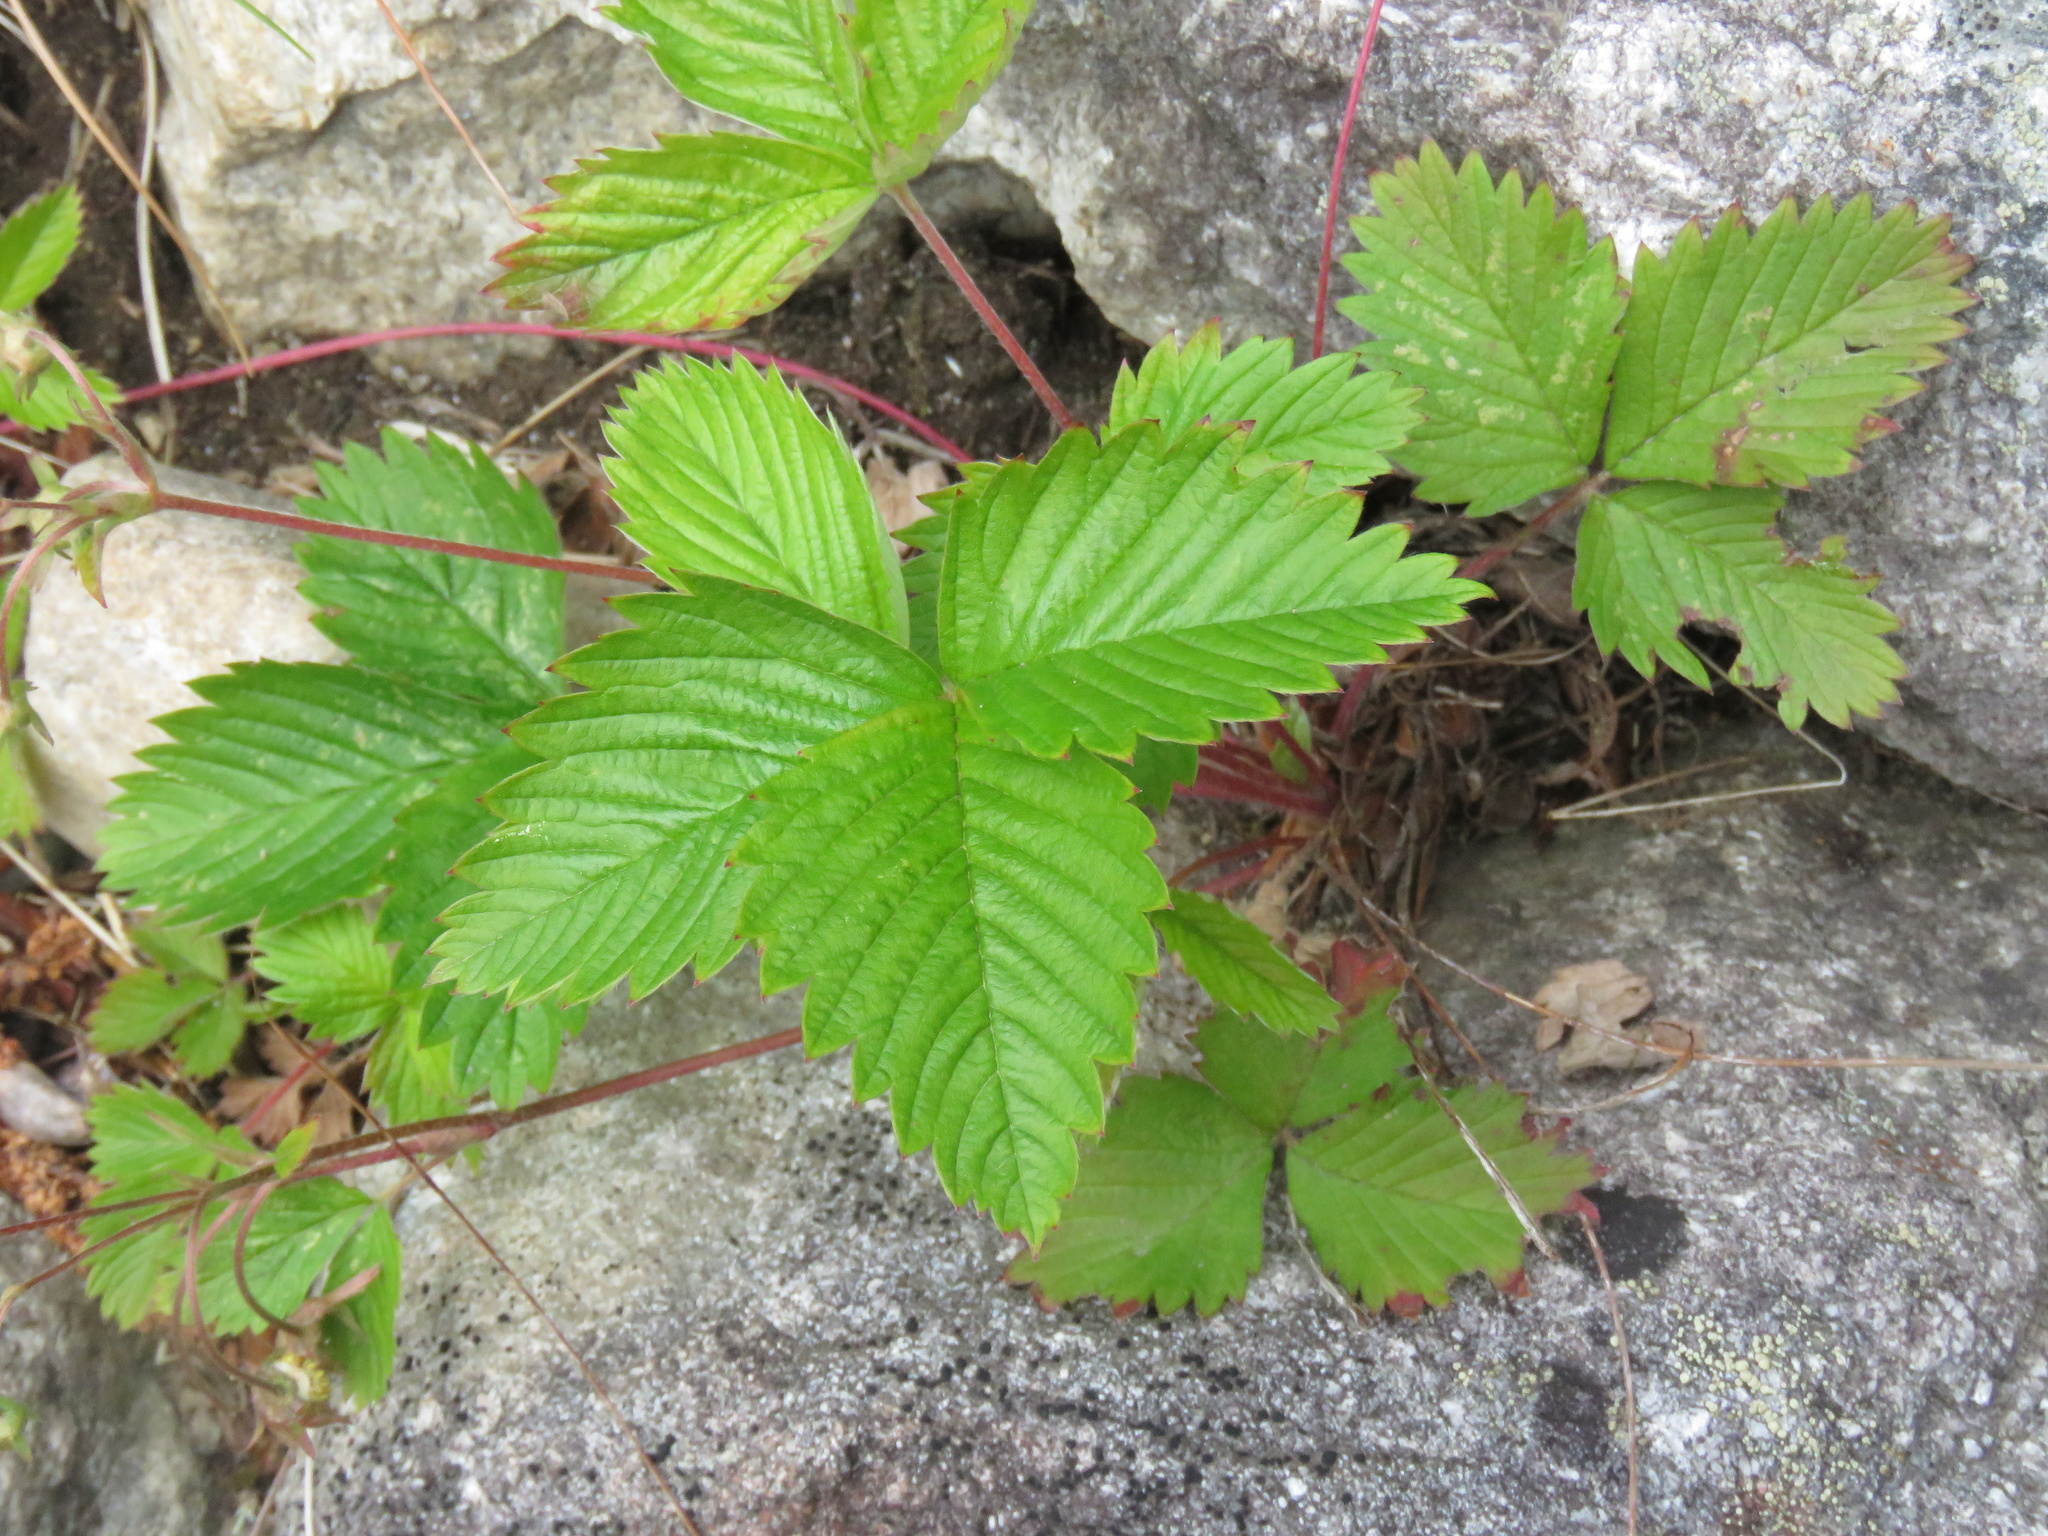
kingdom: Plantae
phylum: Tracheophyta
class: Magnoliopsida
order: Rosales
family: Rosaceae
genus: Fragaria
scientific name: Fragaria vesca
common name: Wild strawberry
